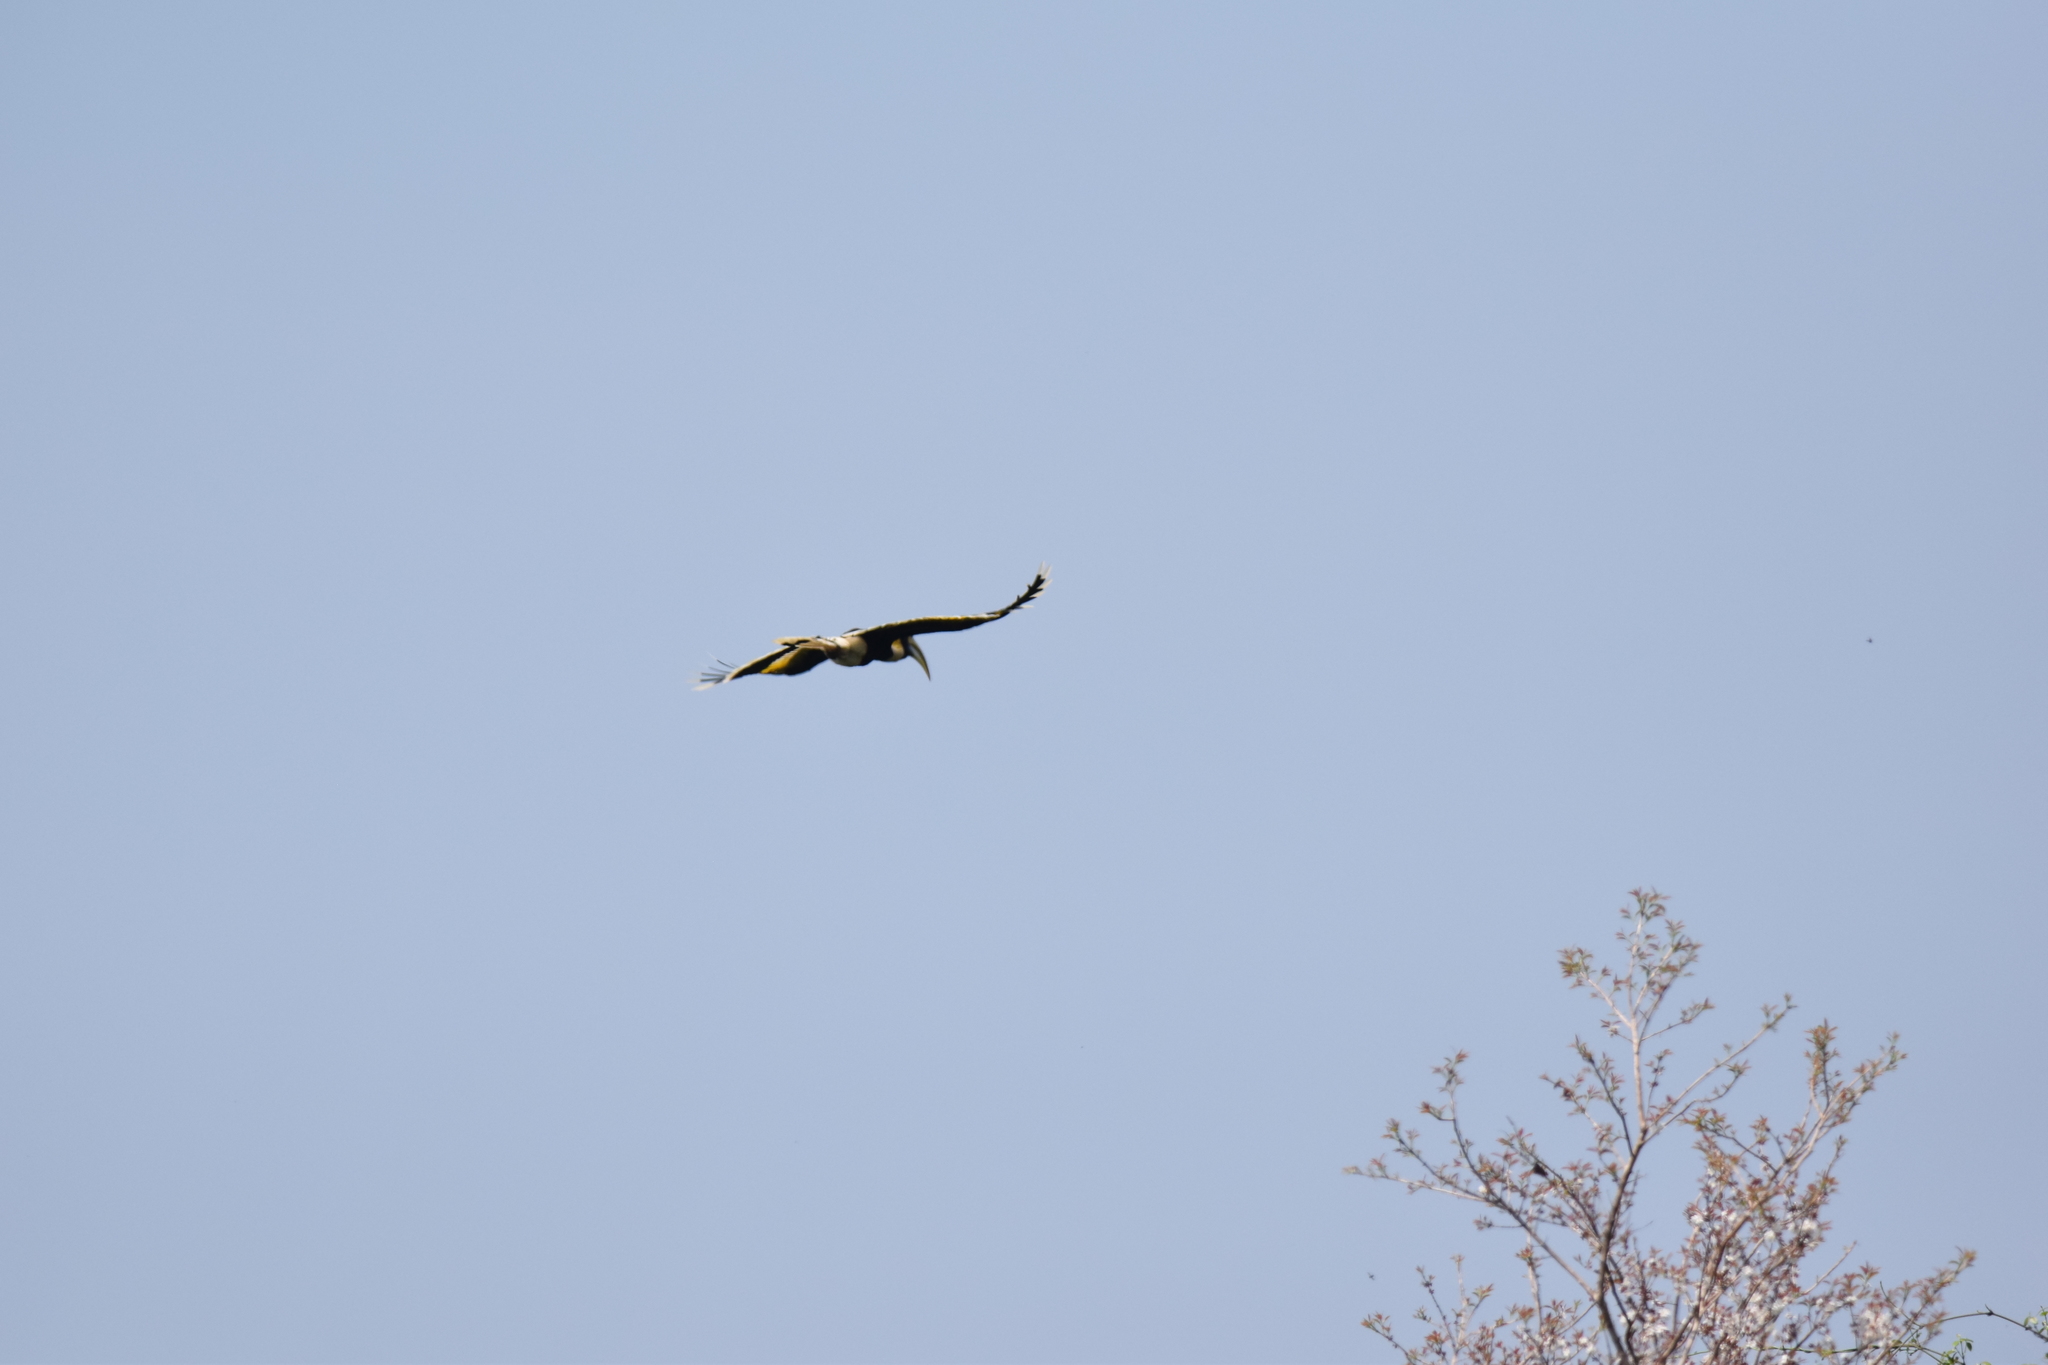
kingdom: Animalia
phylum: Chordata
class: Aves
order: Bucerotiformes
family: Bucerotidae
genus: Buceros
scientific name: Buceros bicornis
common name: Great hornbill
